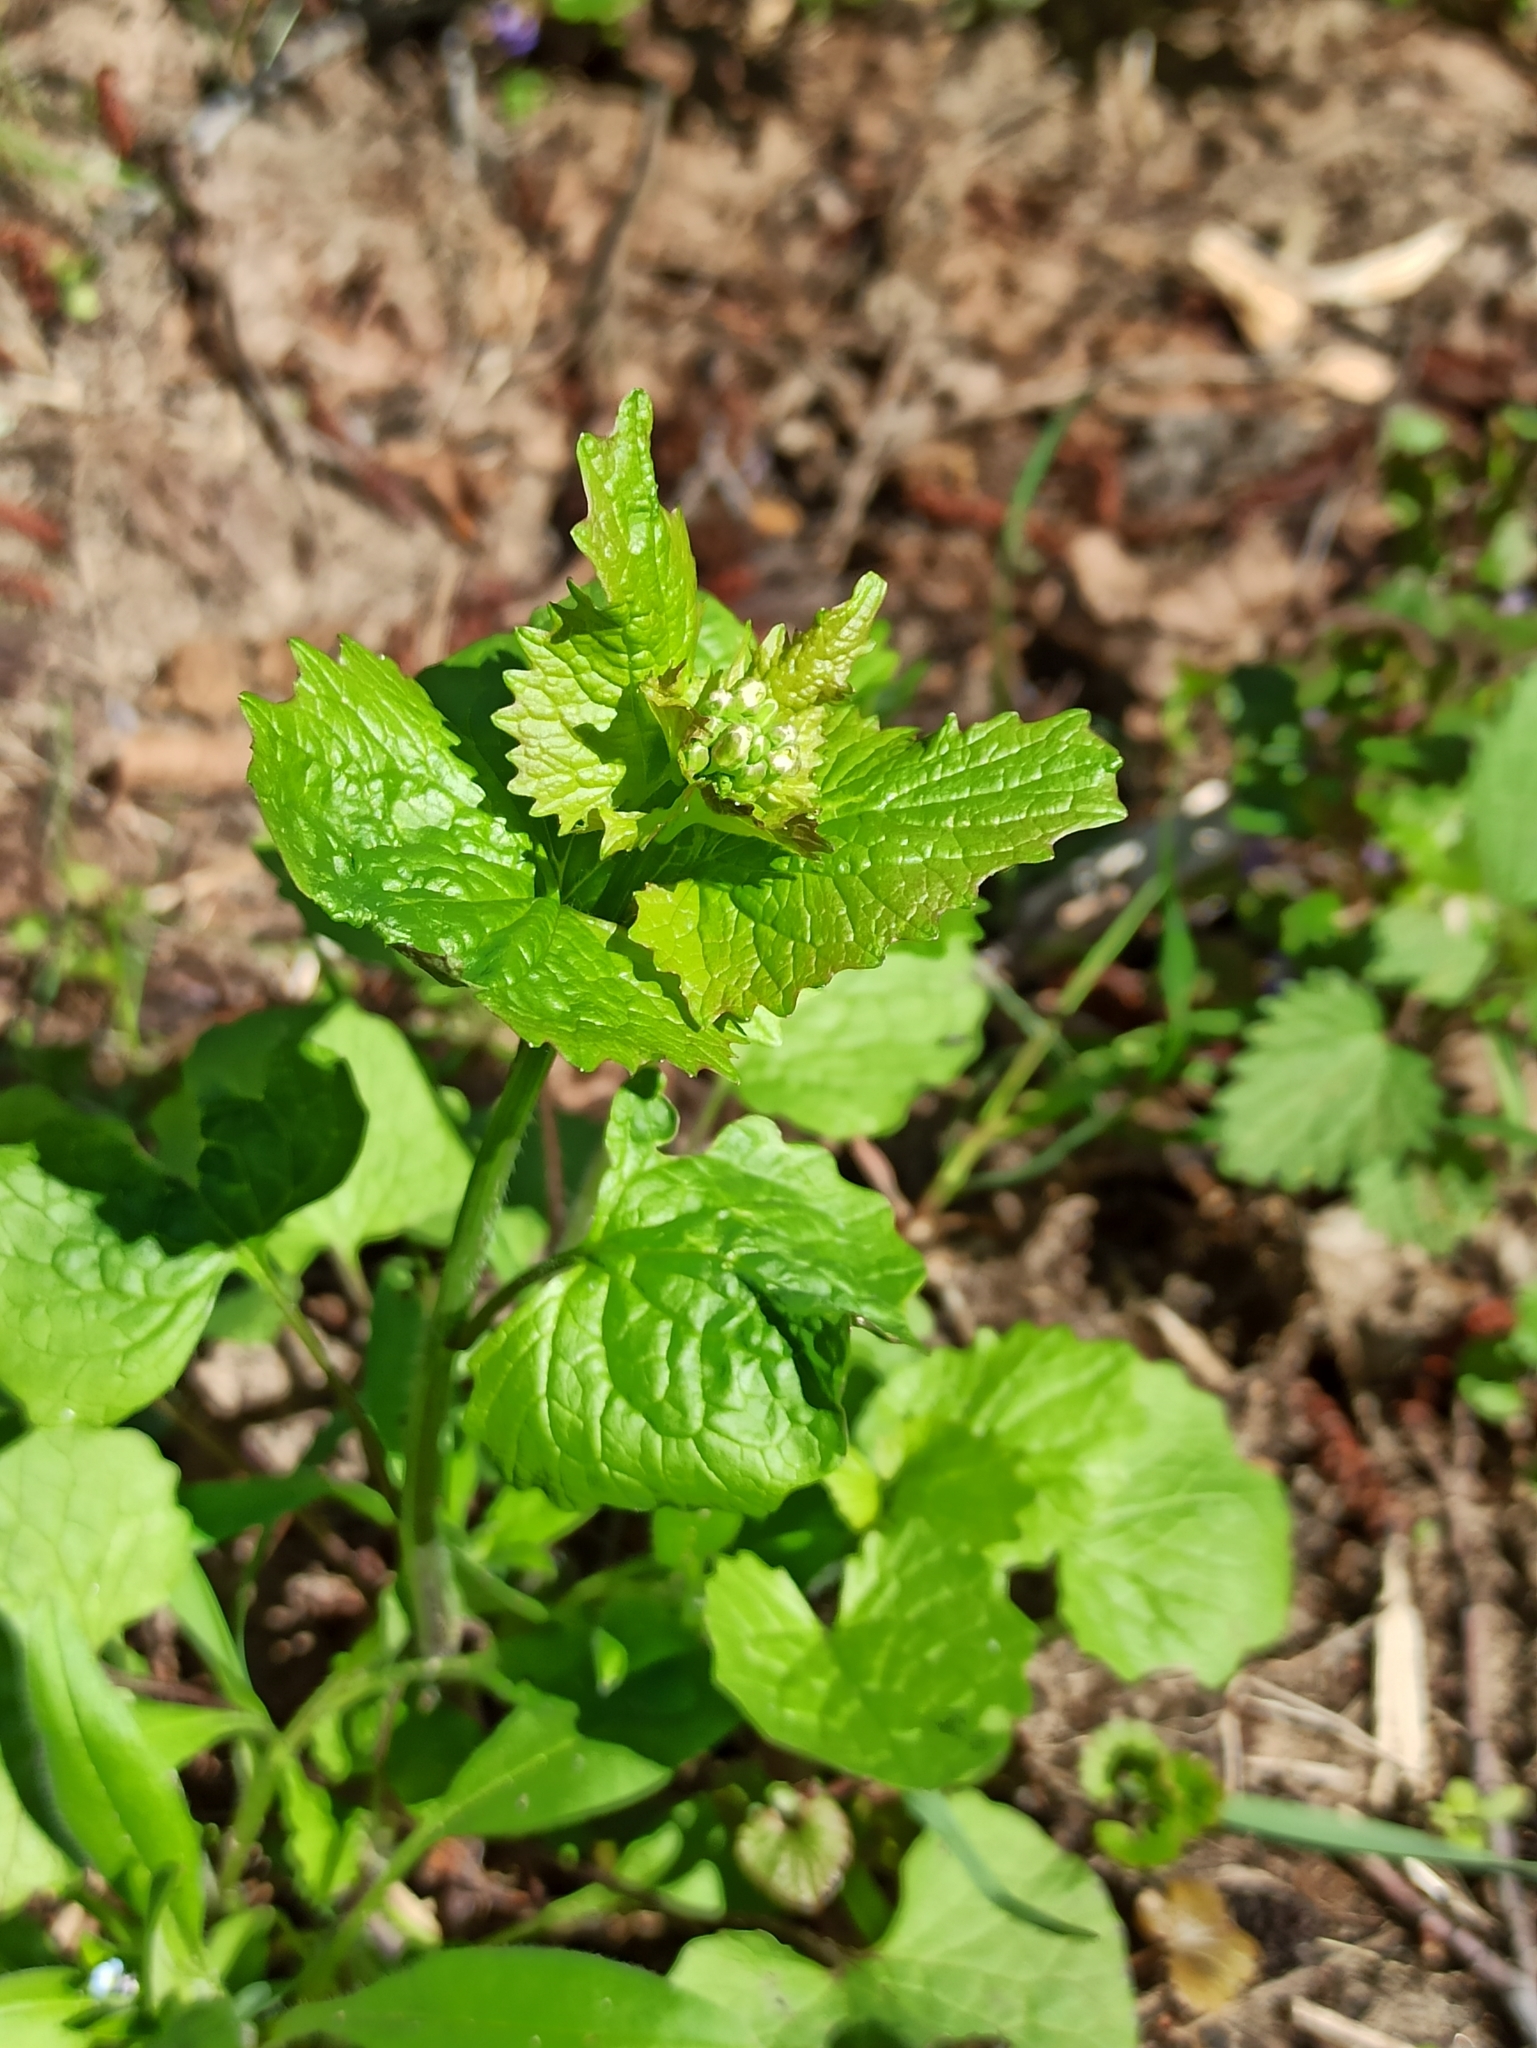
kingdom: Plantae
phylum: Tracheophyta
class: Magnoliopsida
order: Brassicales
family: Brassicaceae
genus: Alliaria
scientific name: Alliaria petiolata
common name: Garlic mustard
